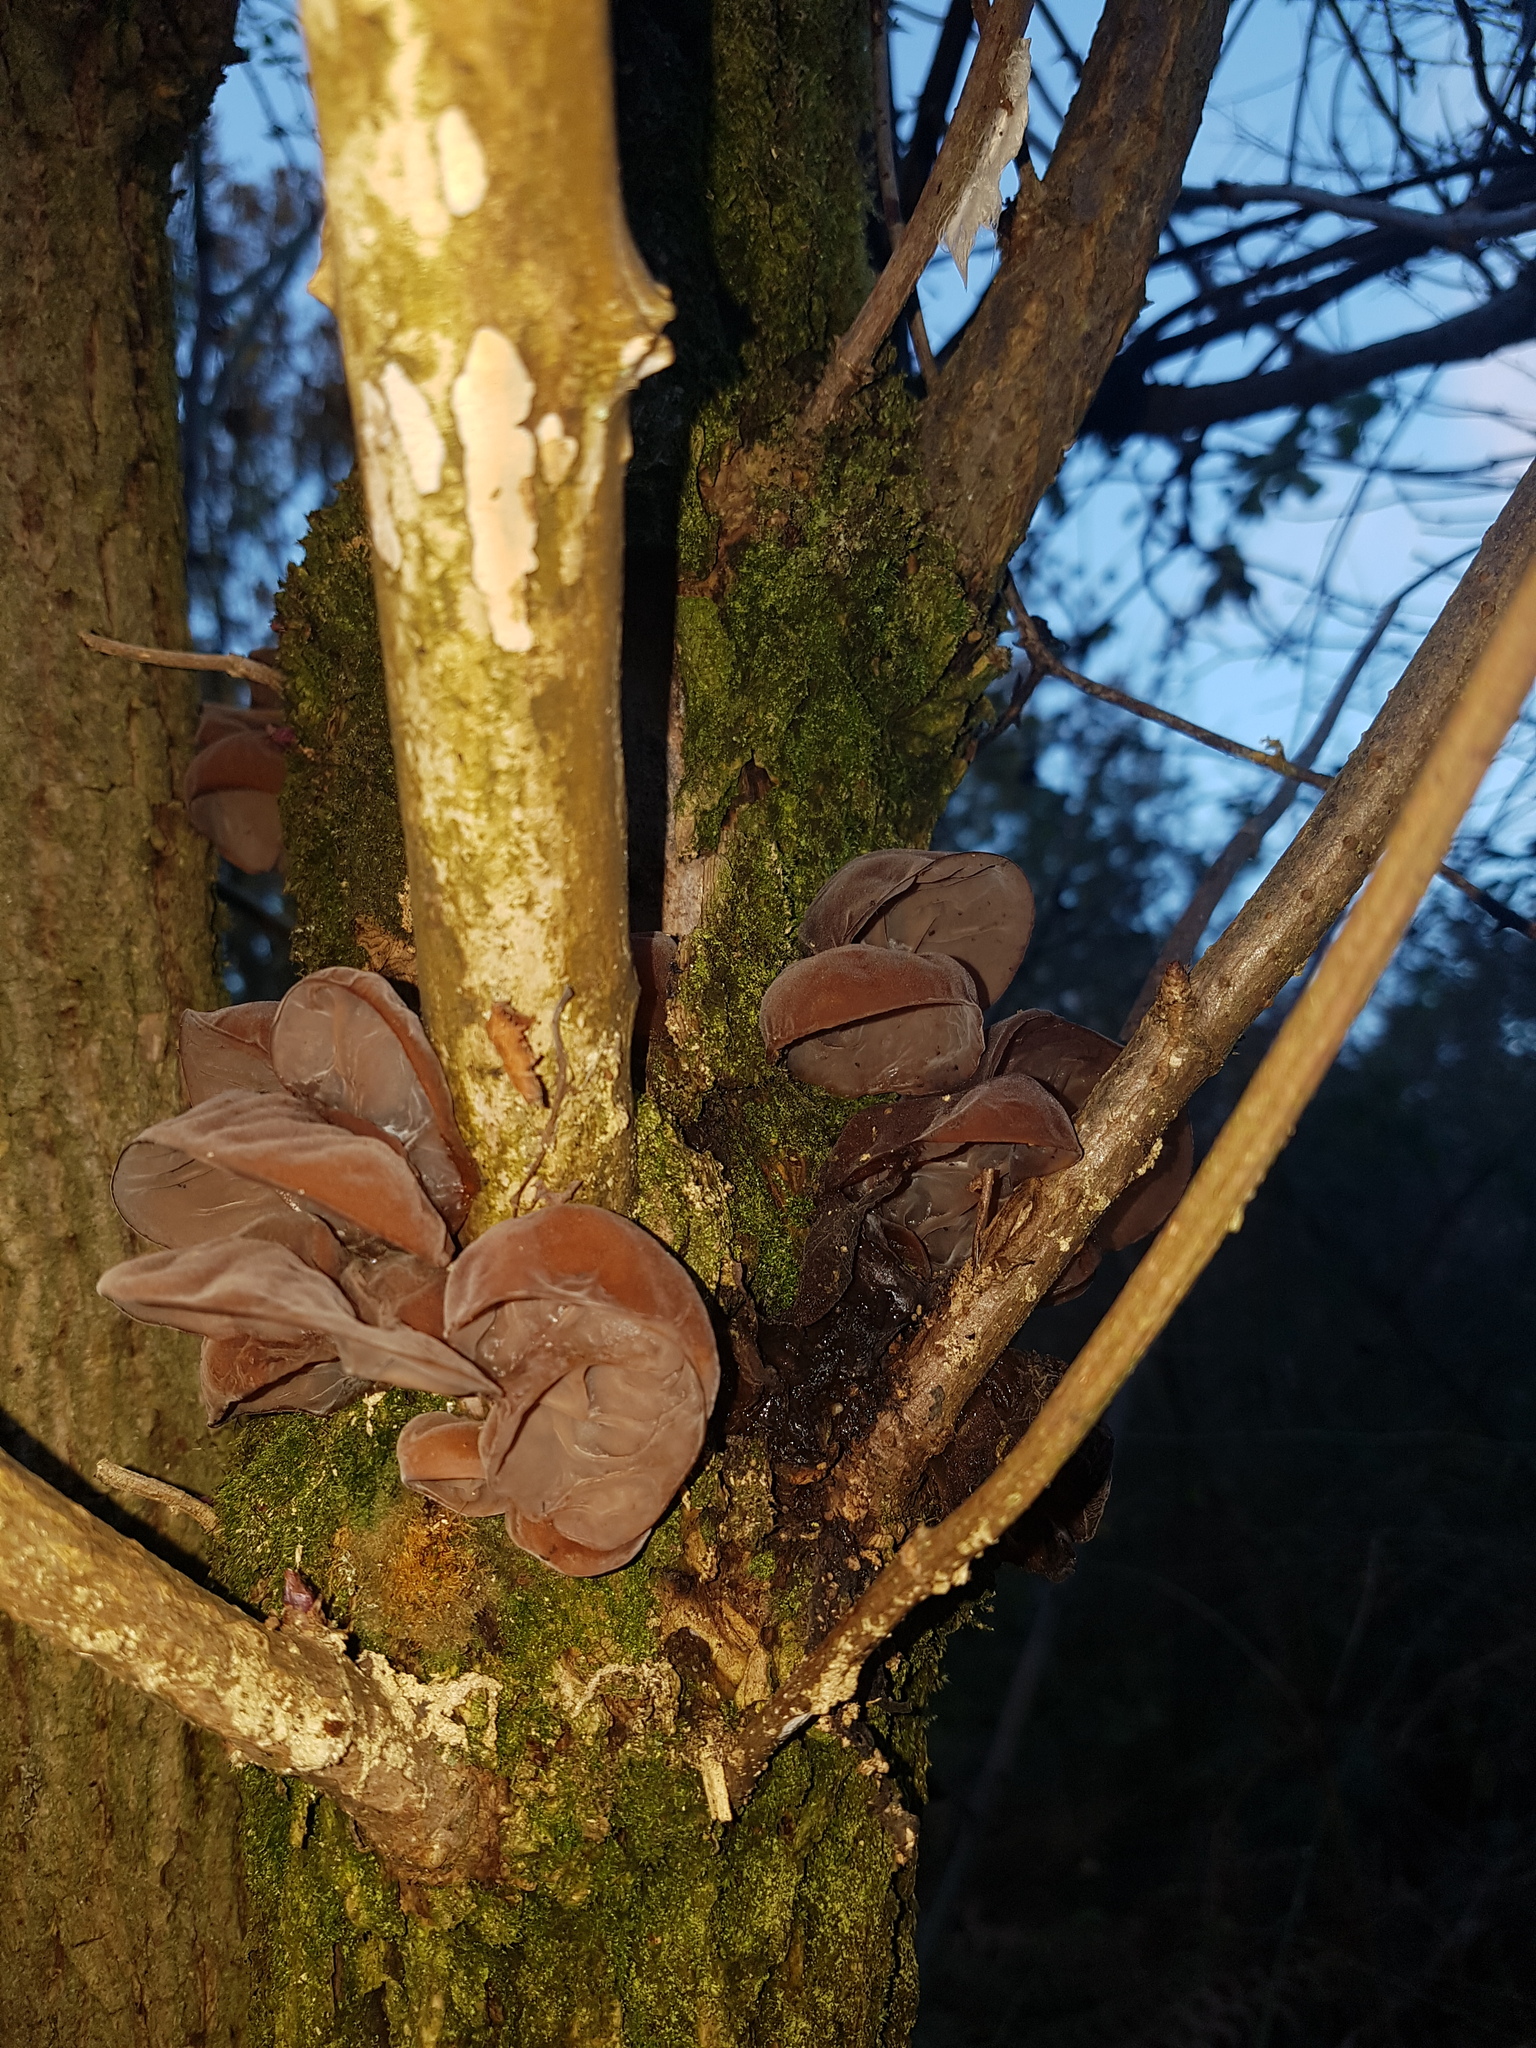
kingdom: Fungi
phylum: Basidiomycota
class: Agaricomycetes
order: Auriculariales
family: Auriculariaceae
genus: Auricularia
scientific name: Auricularia auricula-judae
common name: Jelly ear
